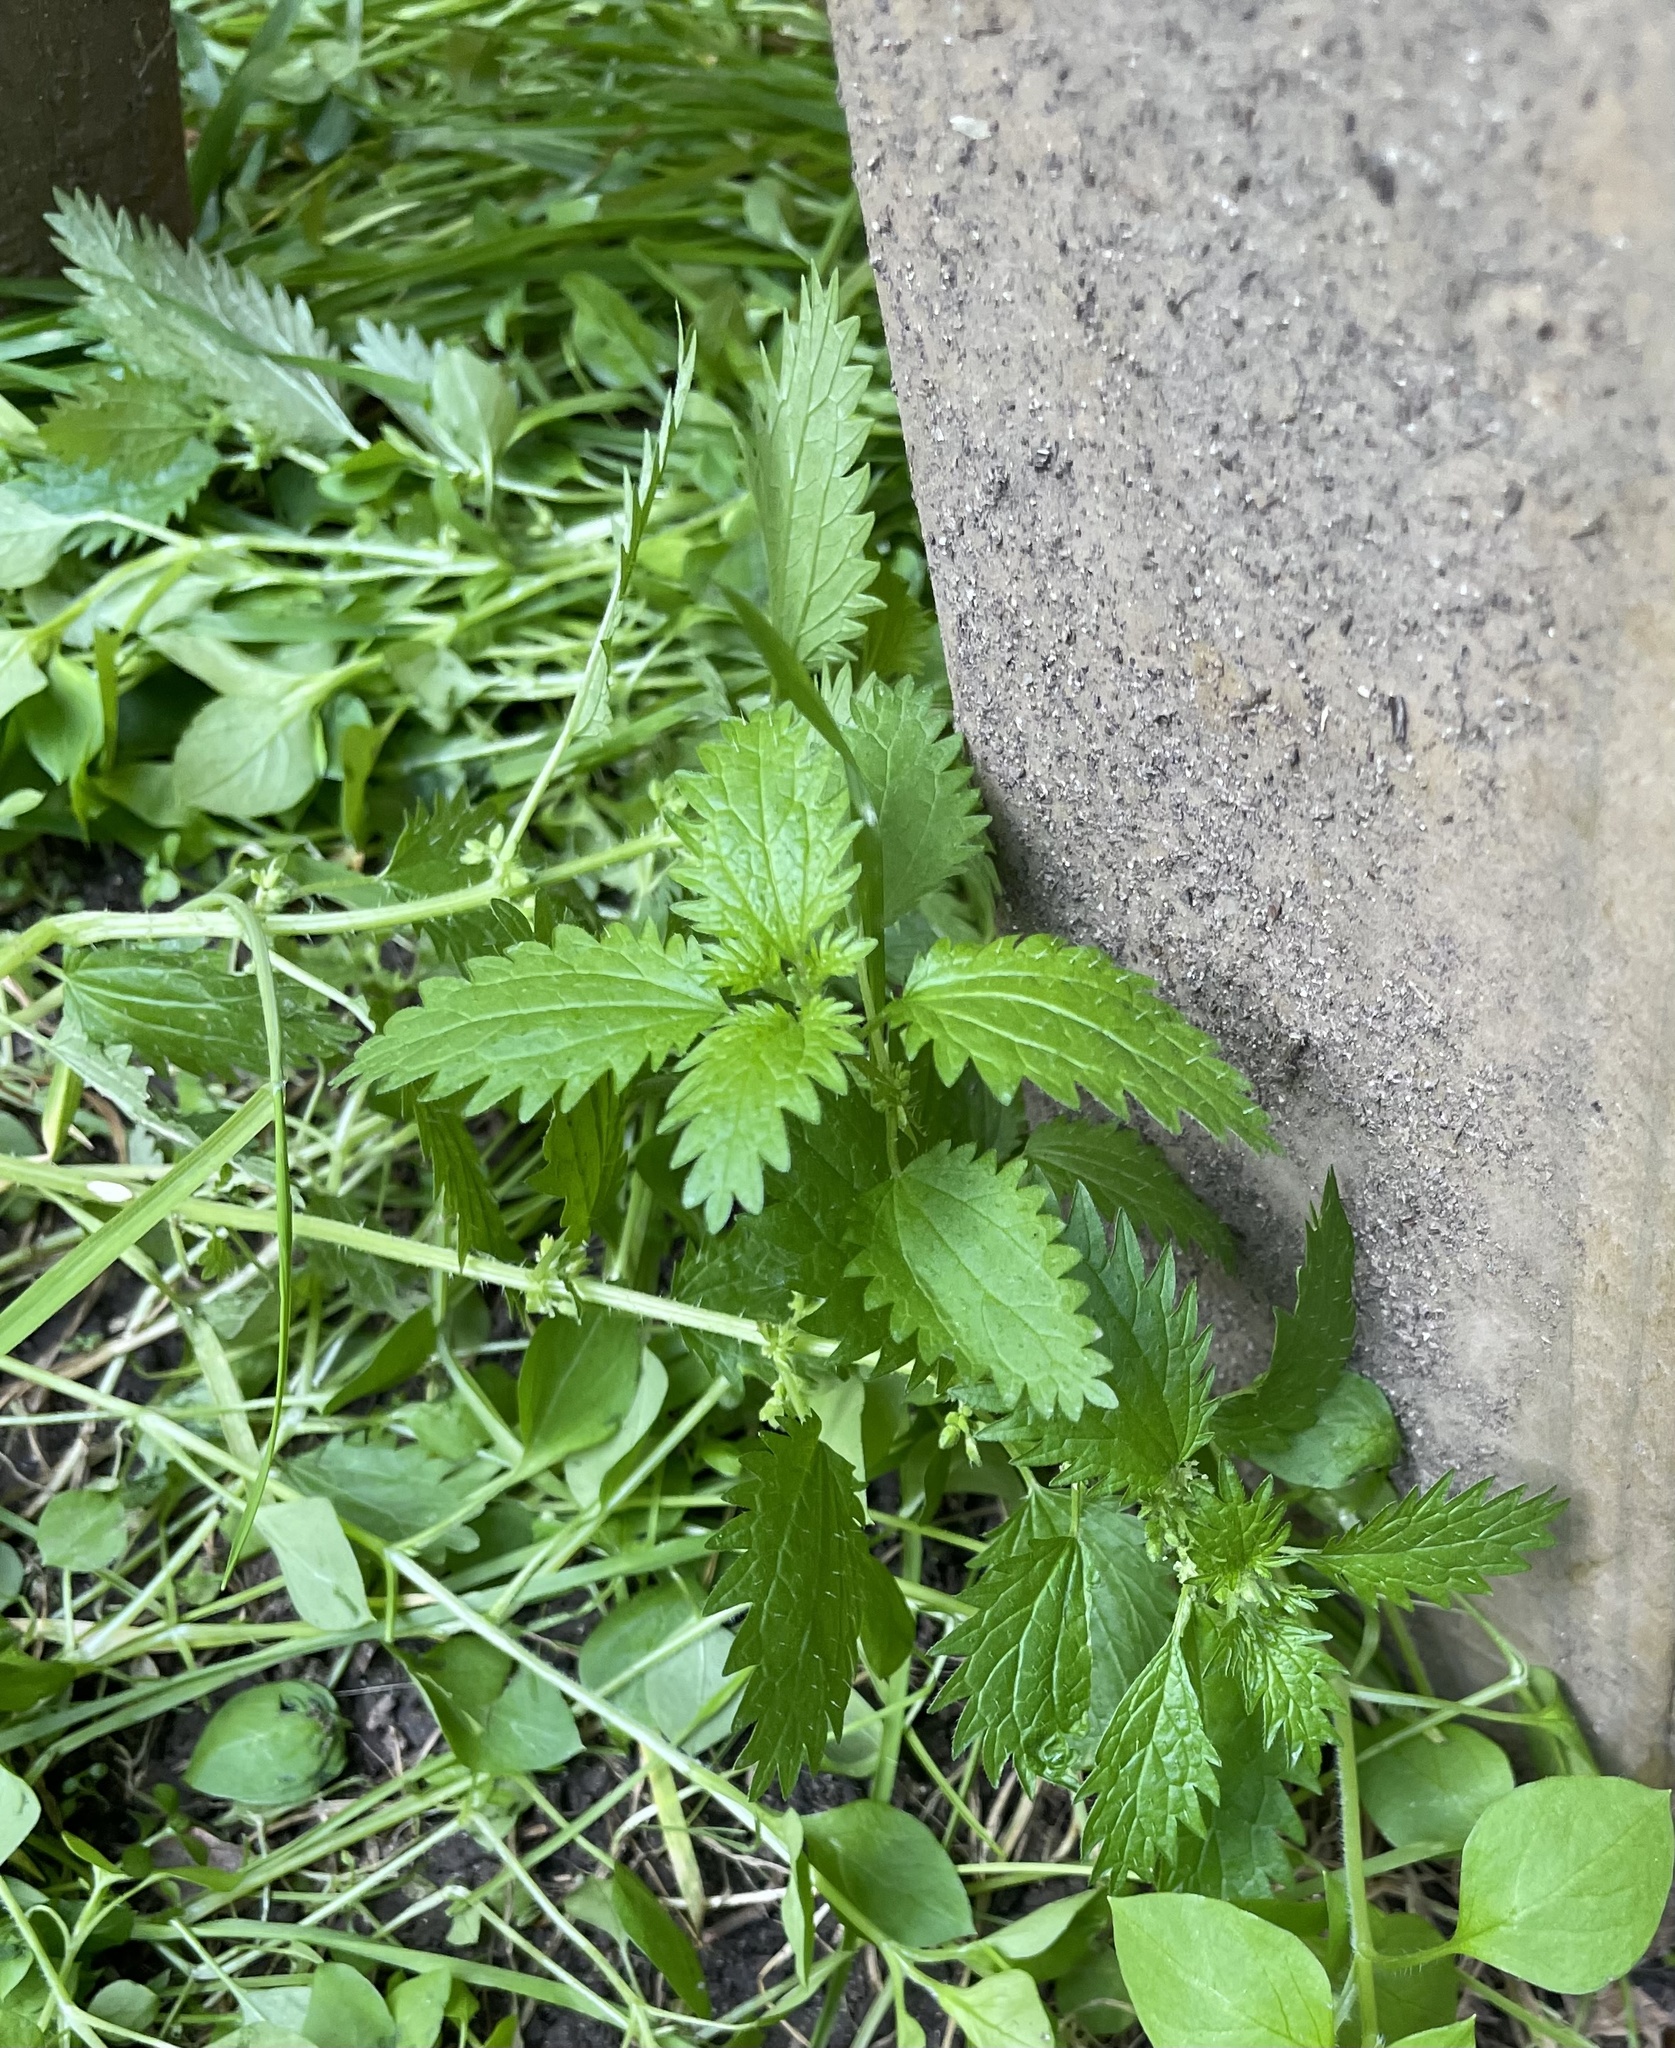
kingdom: Plantae
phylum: Tracheophyta
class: Magnoliopsida
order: Rosales
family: Urticaceae
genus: Urtica
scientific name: Urtica urens
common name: Dwarf nettle
